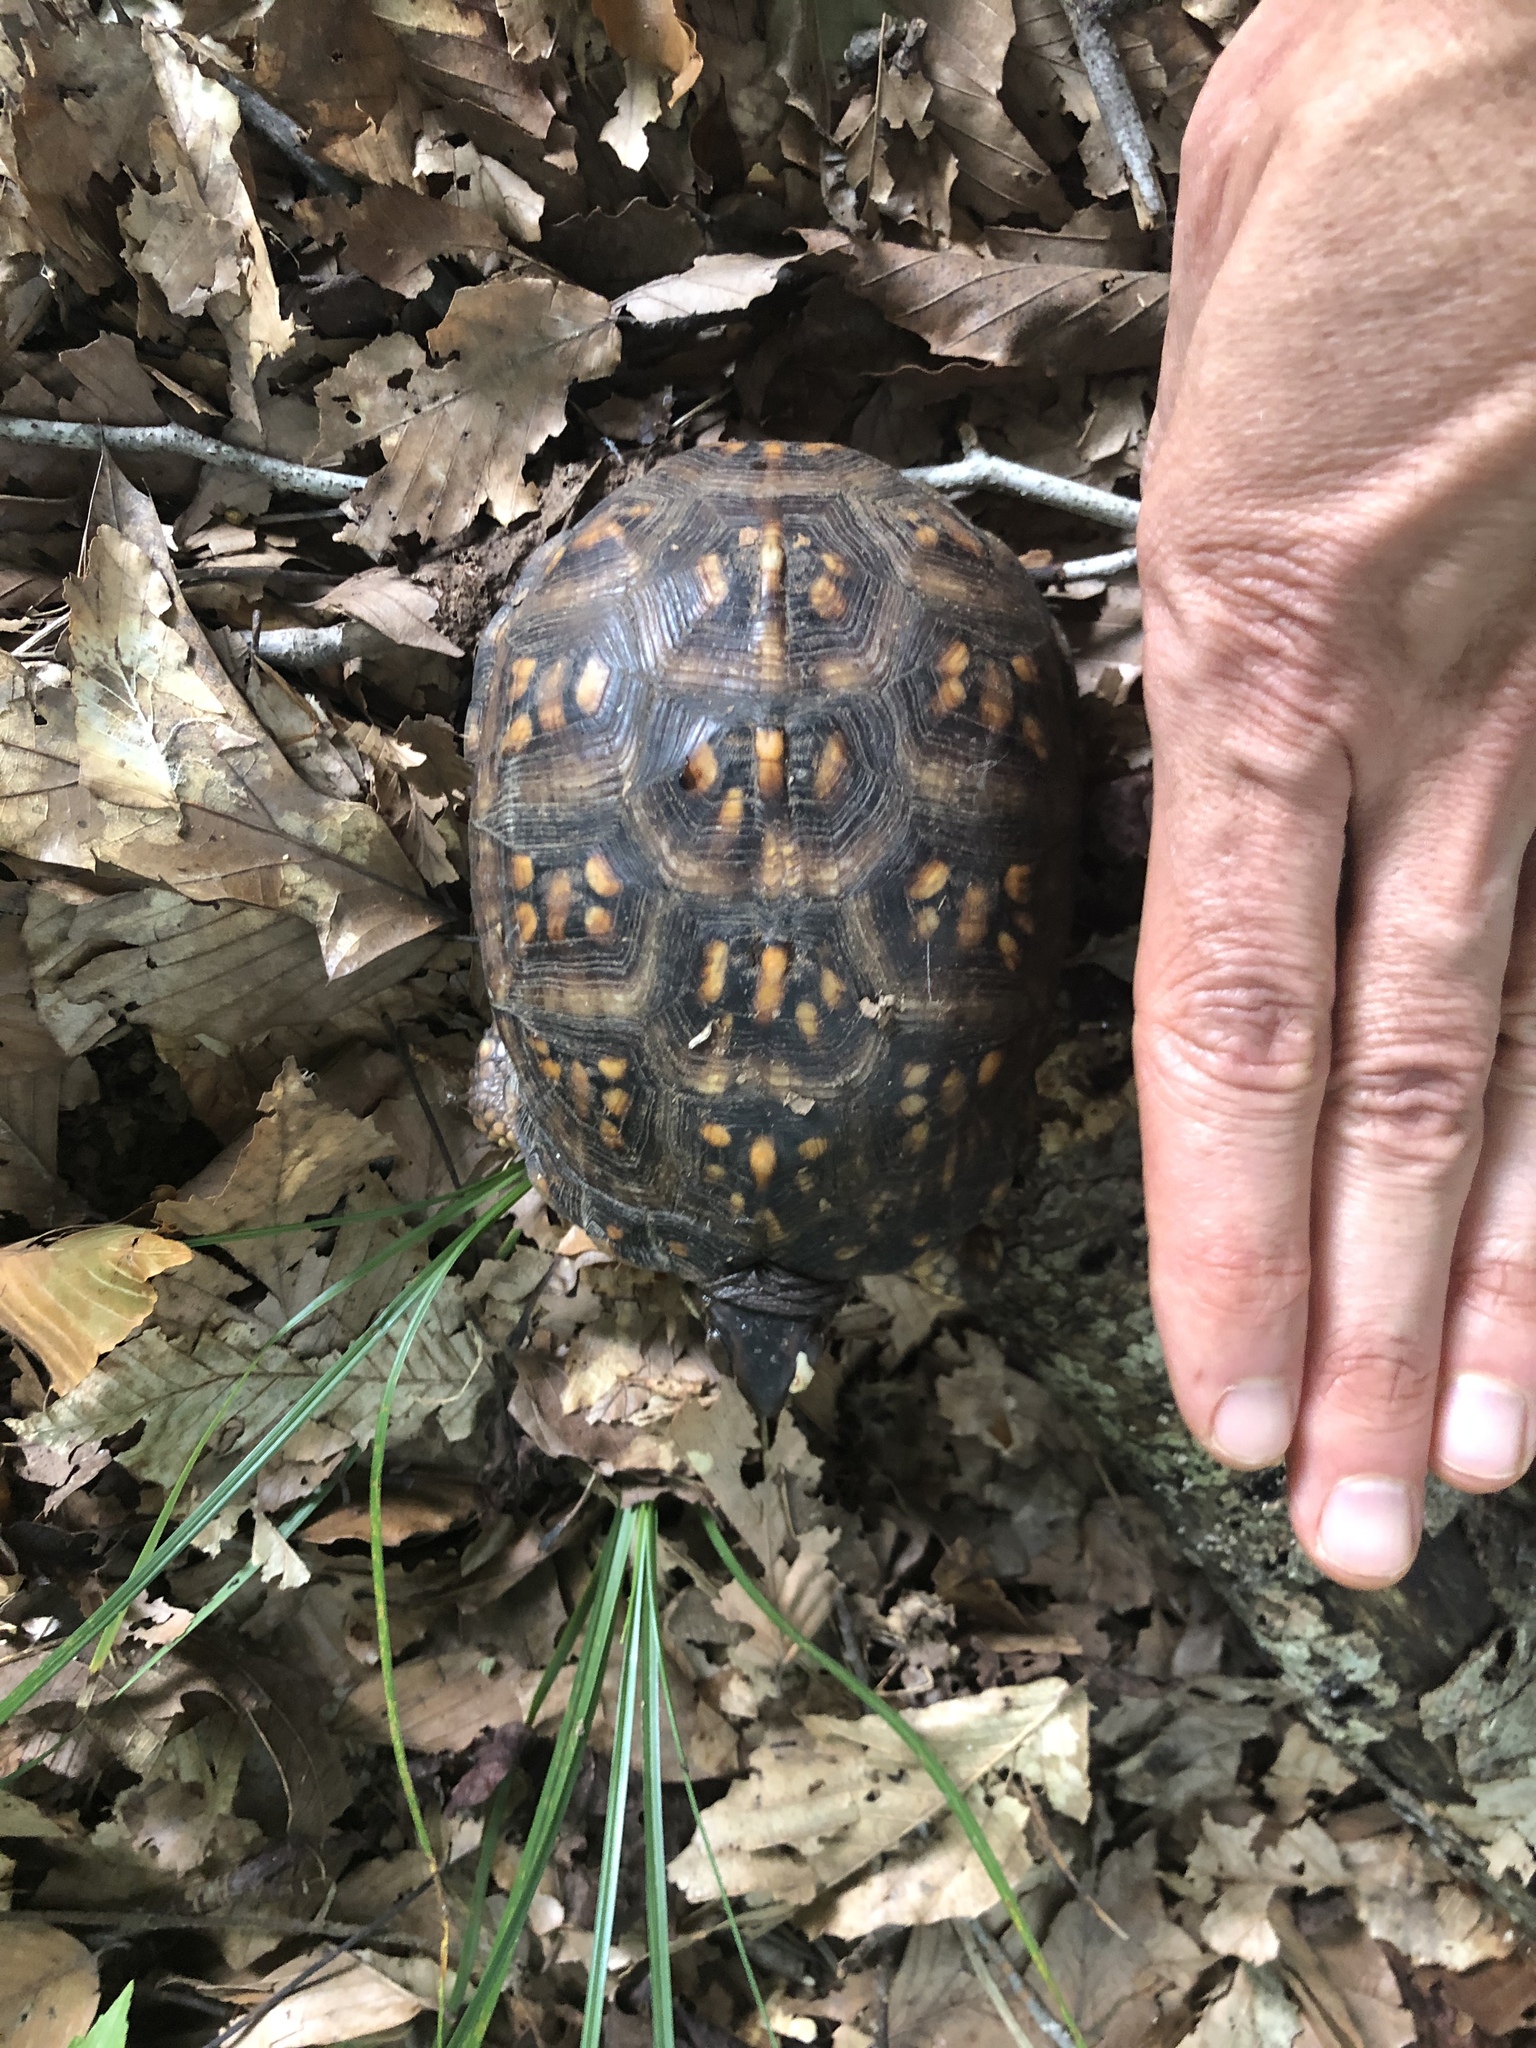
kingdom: Animalia
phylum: Chordata
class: Testudines
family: Emydidae
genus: Terrapene
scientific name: Terrapene carolina
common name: Common box turtle
